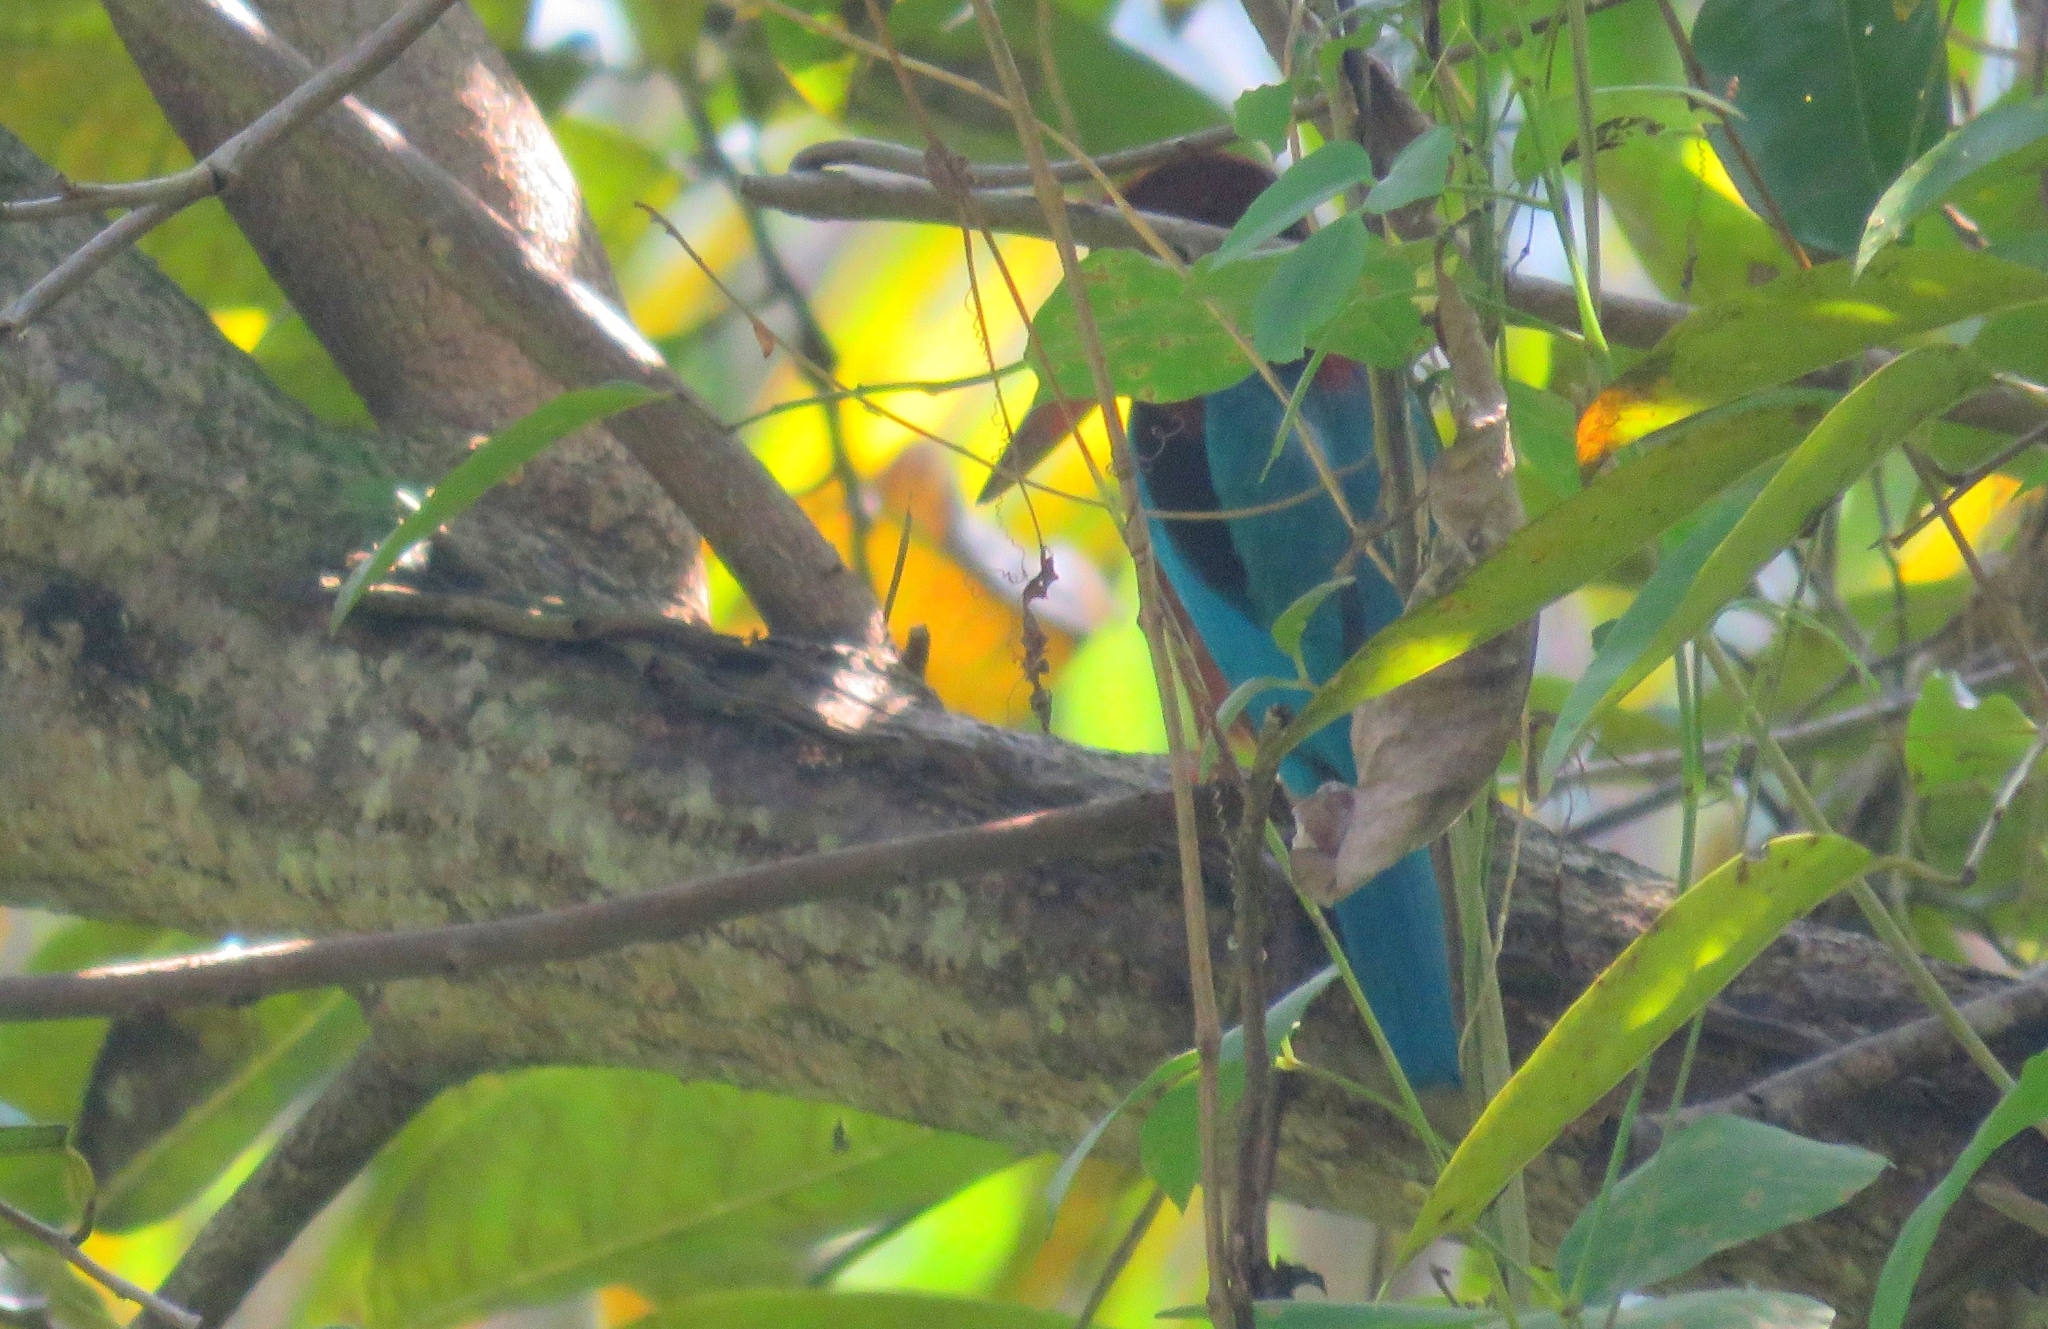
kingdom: Animalia
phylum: Chordata
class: Aves
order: Coraciiformes
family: Alcedinidae
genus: Halcyon
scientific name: Halcyon smyrnensis
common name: White-throated kingfisher
